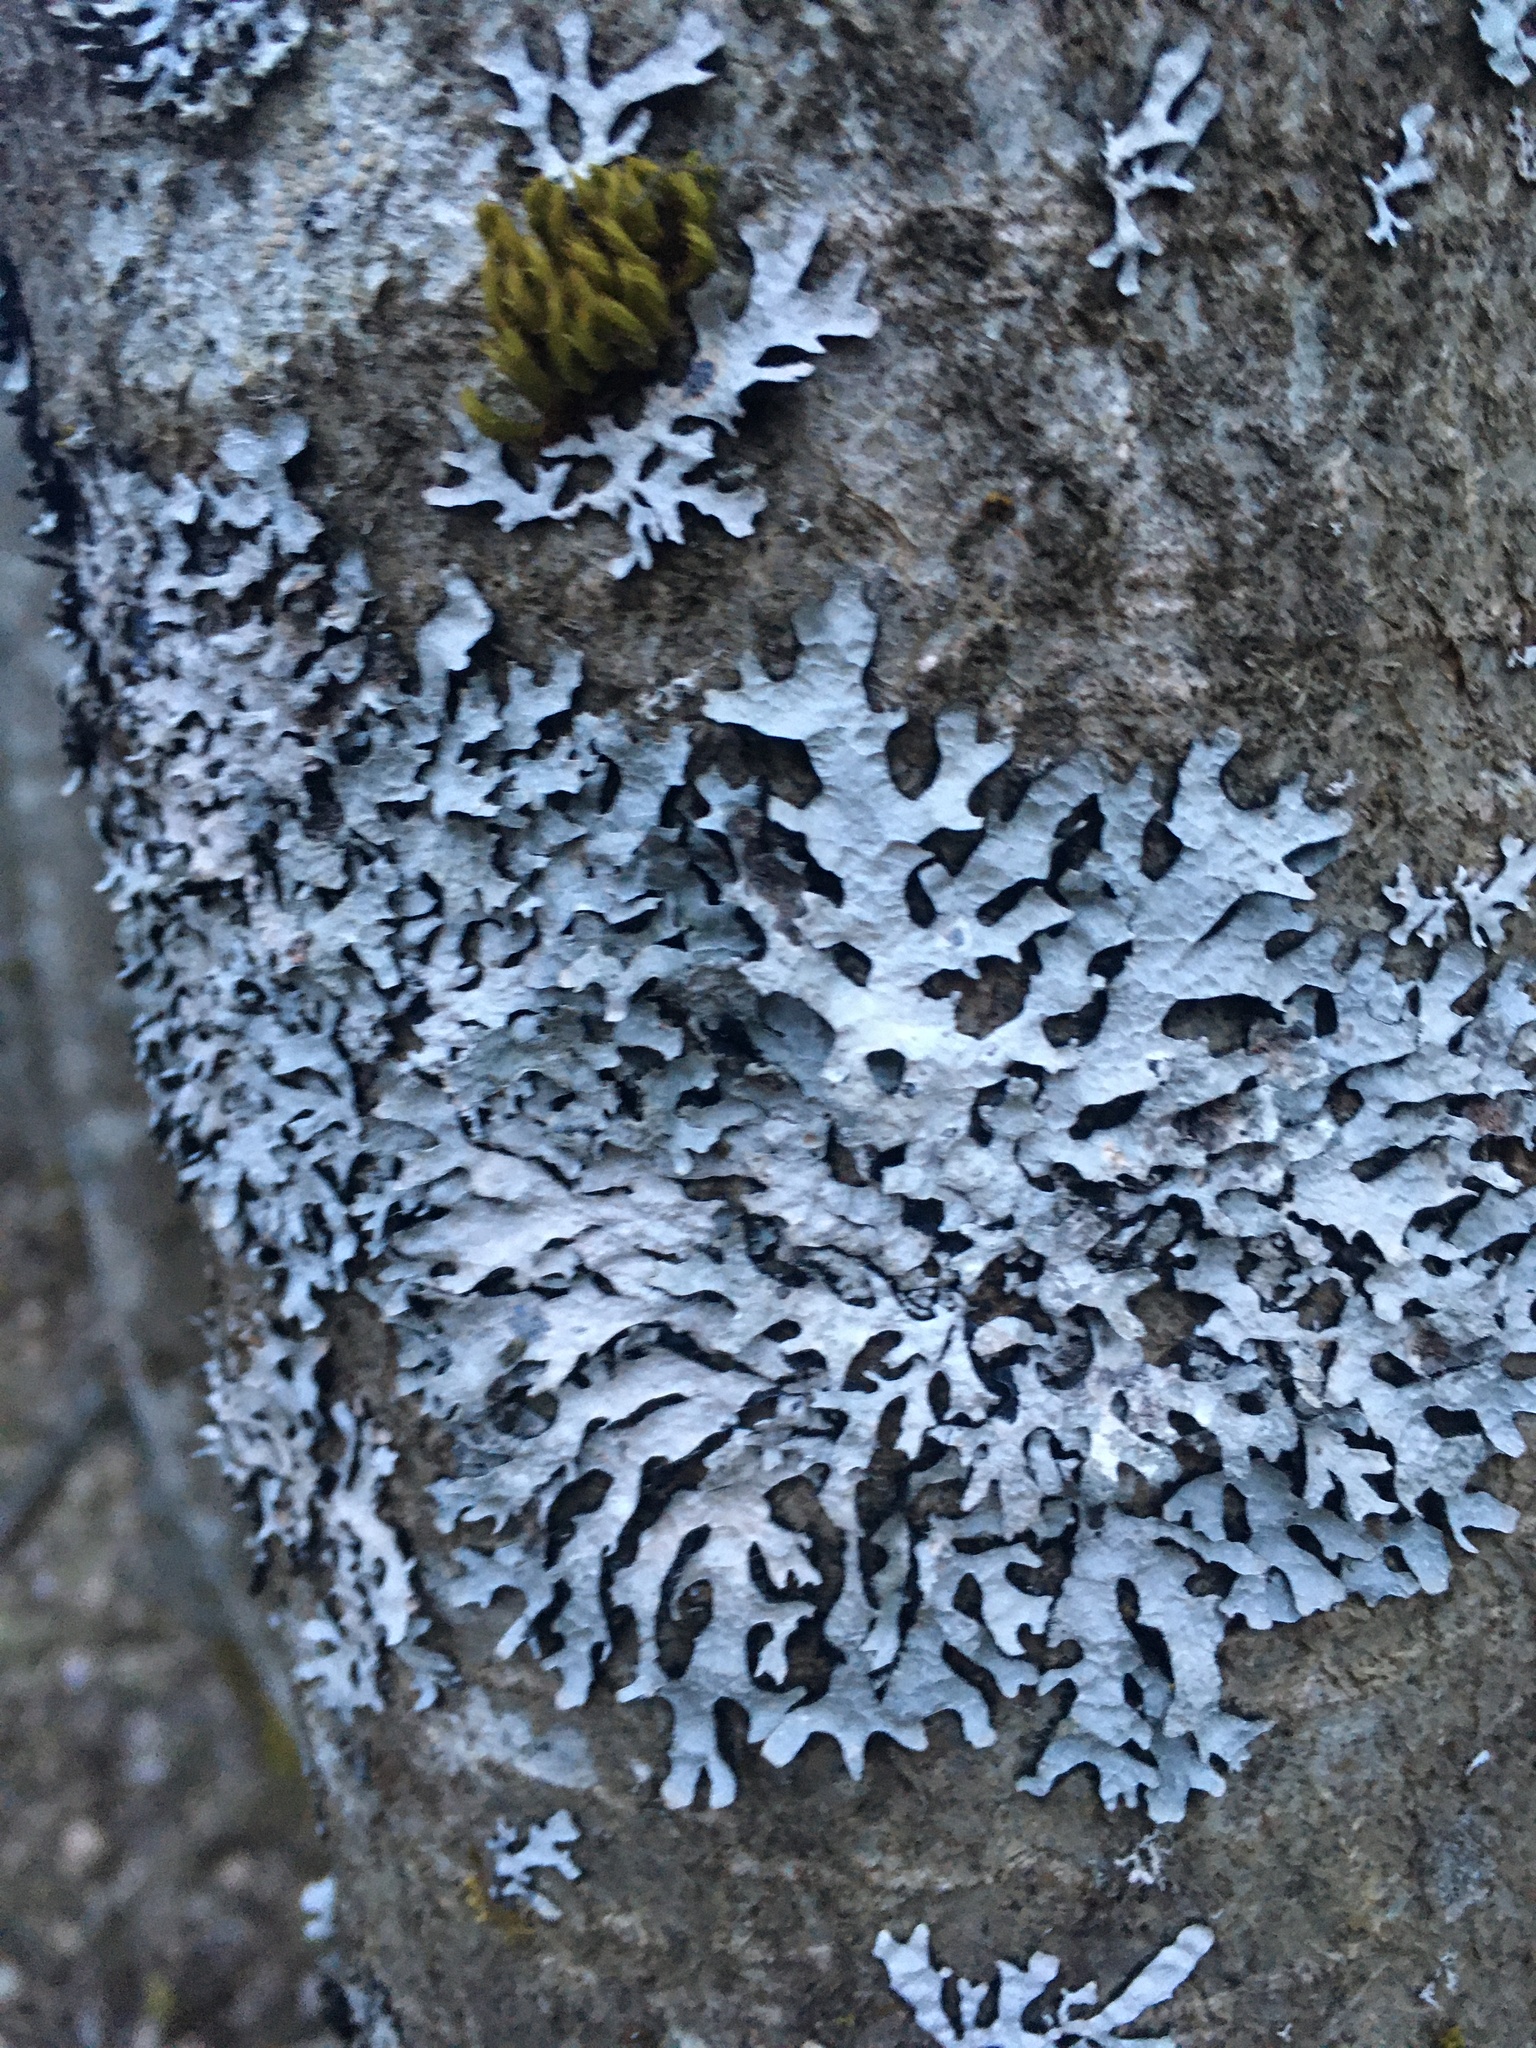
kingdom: Fungi
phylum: Ascomycota
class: Lecanoromycetes
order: Lecanorales
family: Parmeliaceae
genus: Parmelia
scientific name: Parmelia sulcata
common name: Netted shield lichen
